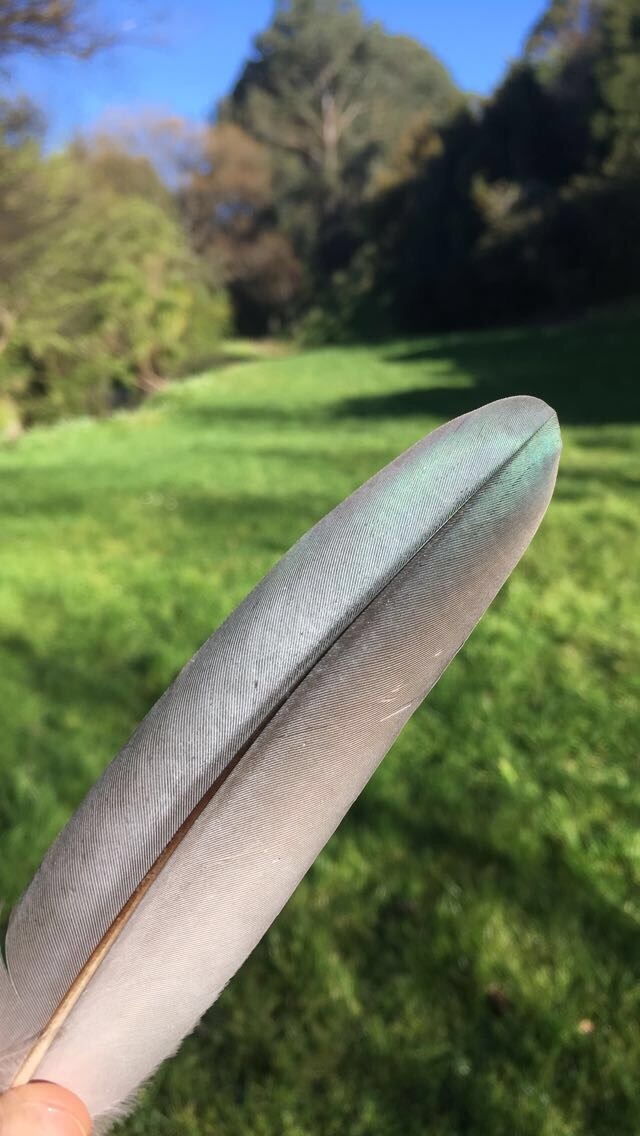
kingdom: Animalia
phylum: Chordata
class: Aves
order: Columbiformes
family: Columbidae
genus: Hemiphaga
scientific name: Hemiphaga novaeseelandiae
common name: New zealand pigeon
